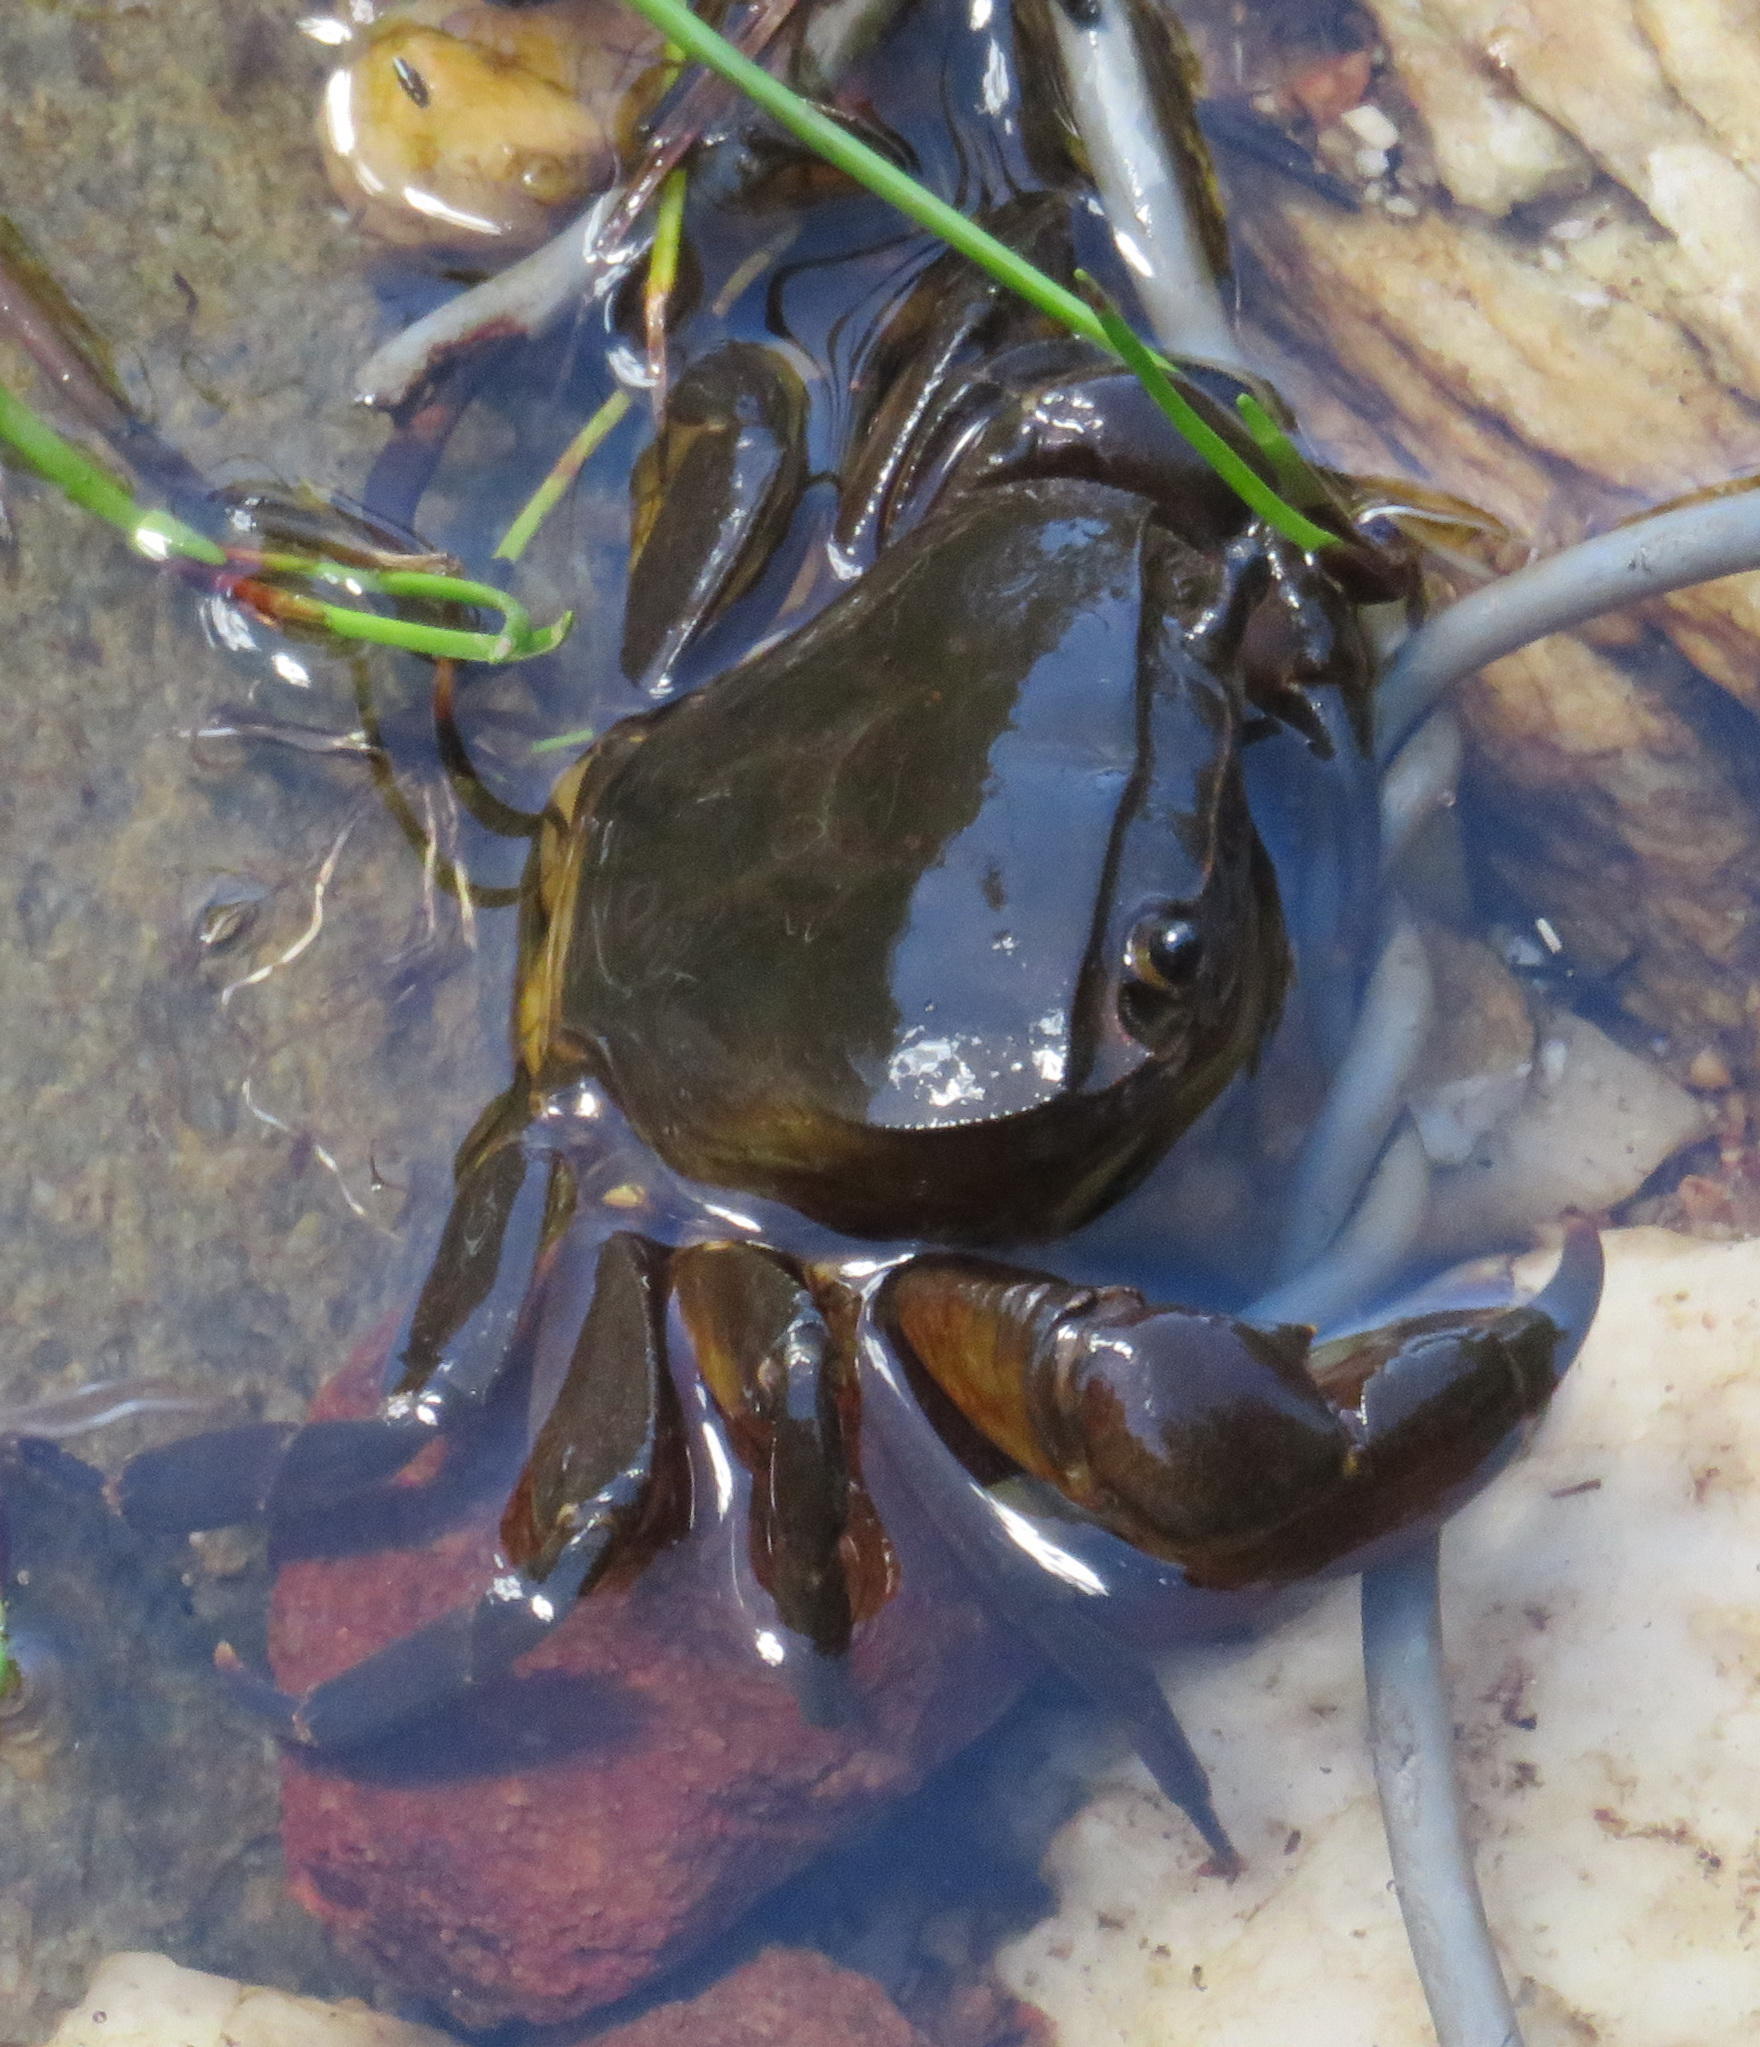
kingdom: Animalia
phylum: Arthropoda
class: Malacostraca
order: Decapoda
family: Potamonautidae
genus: Potamonautes
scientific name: Potamonautes barbarai
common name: Barbara's crab
